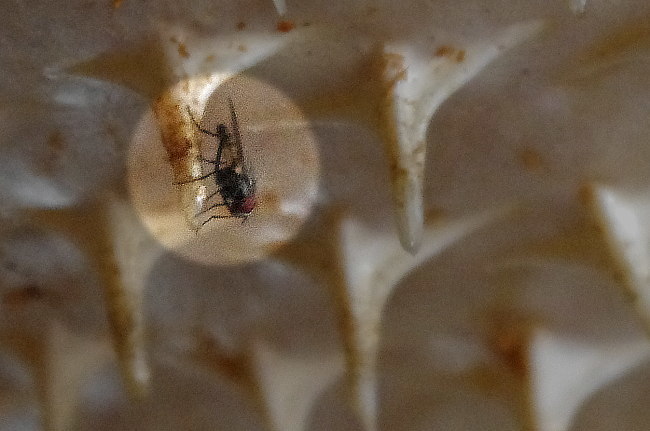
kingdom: Animalia
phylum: Arthropoda
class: Insecta
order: Diptera
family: Fanniidae
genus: Fannia
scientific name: Fannia canicularis
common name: Little house fly
